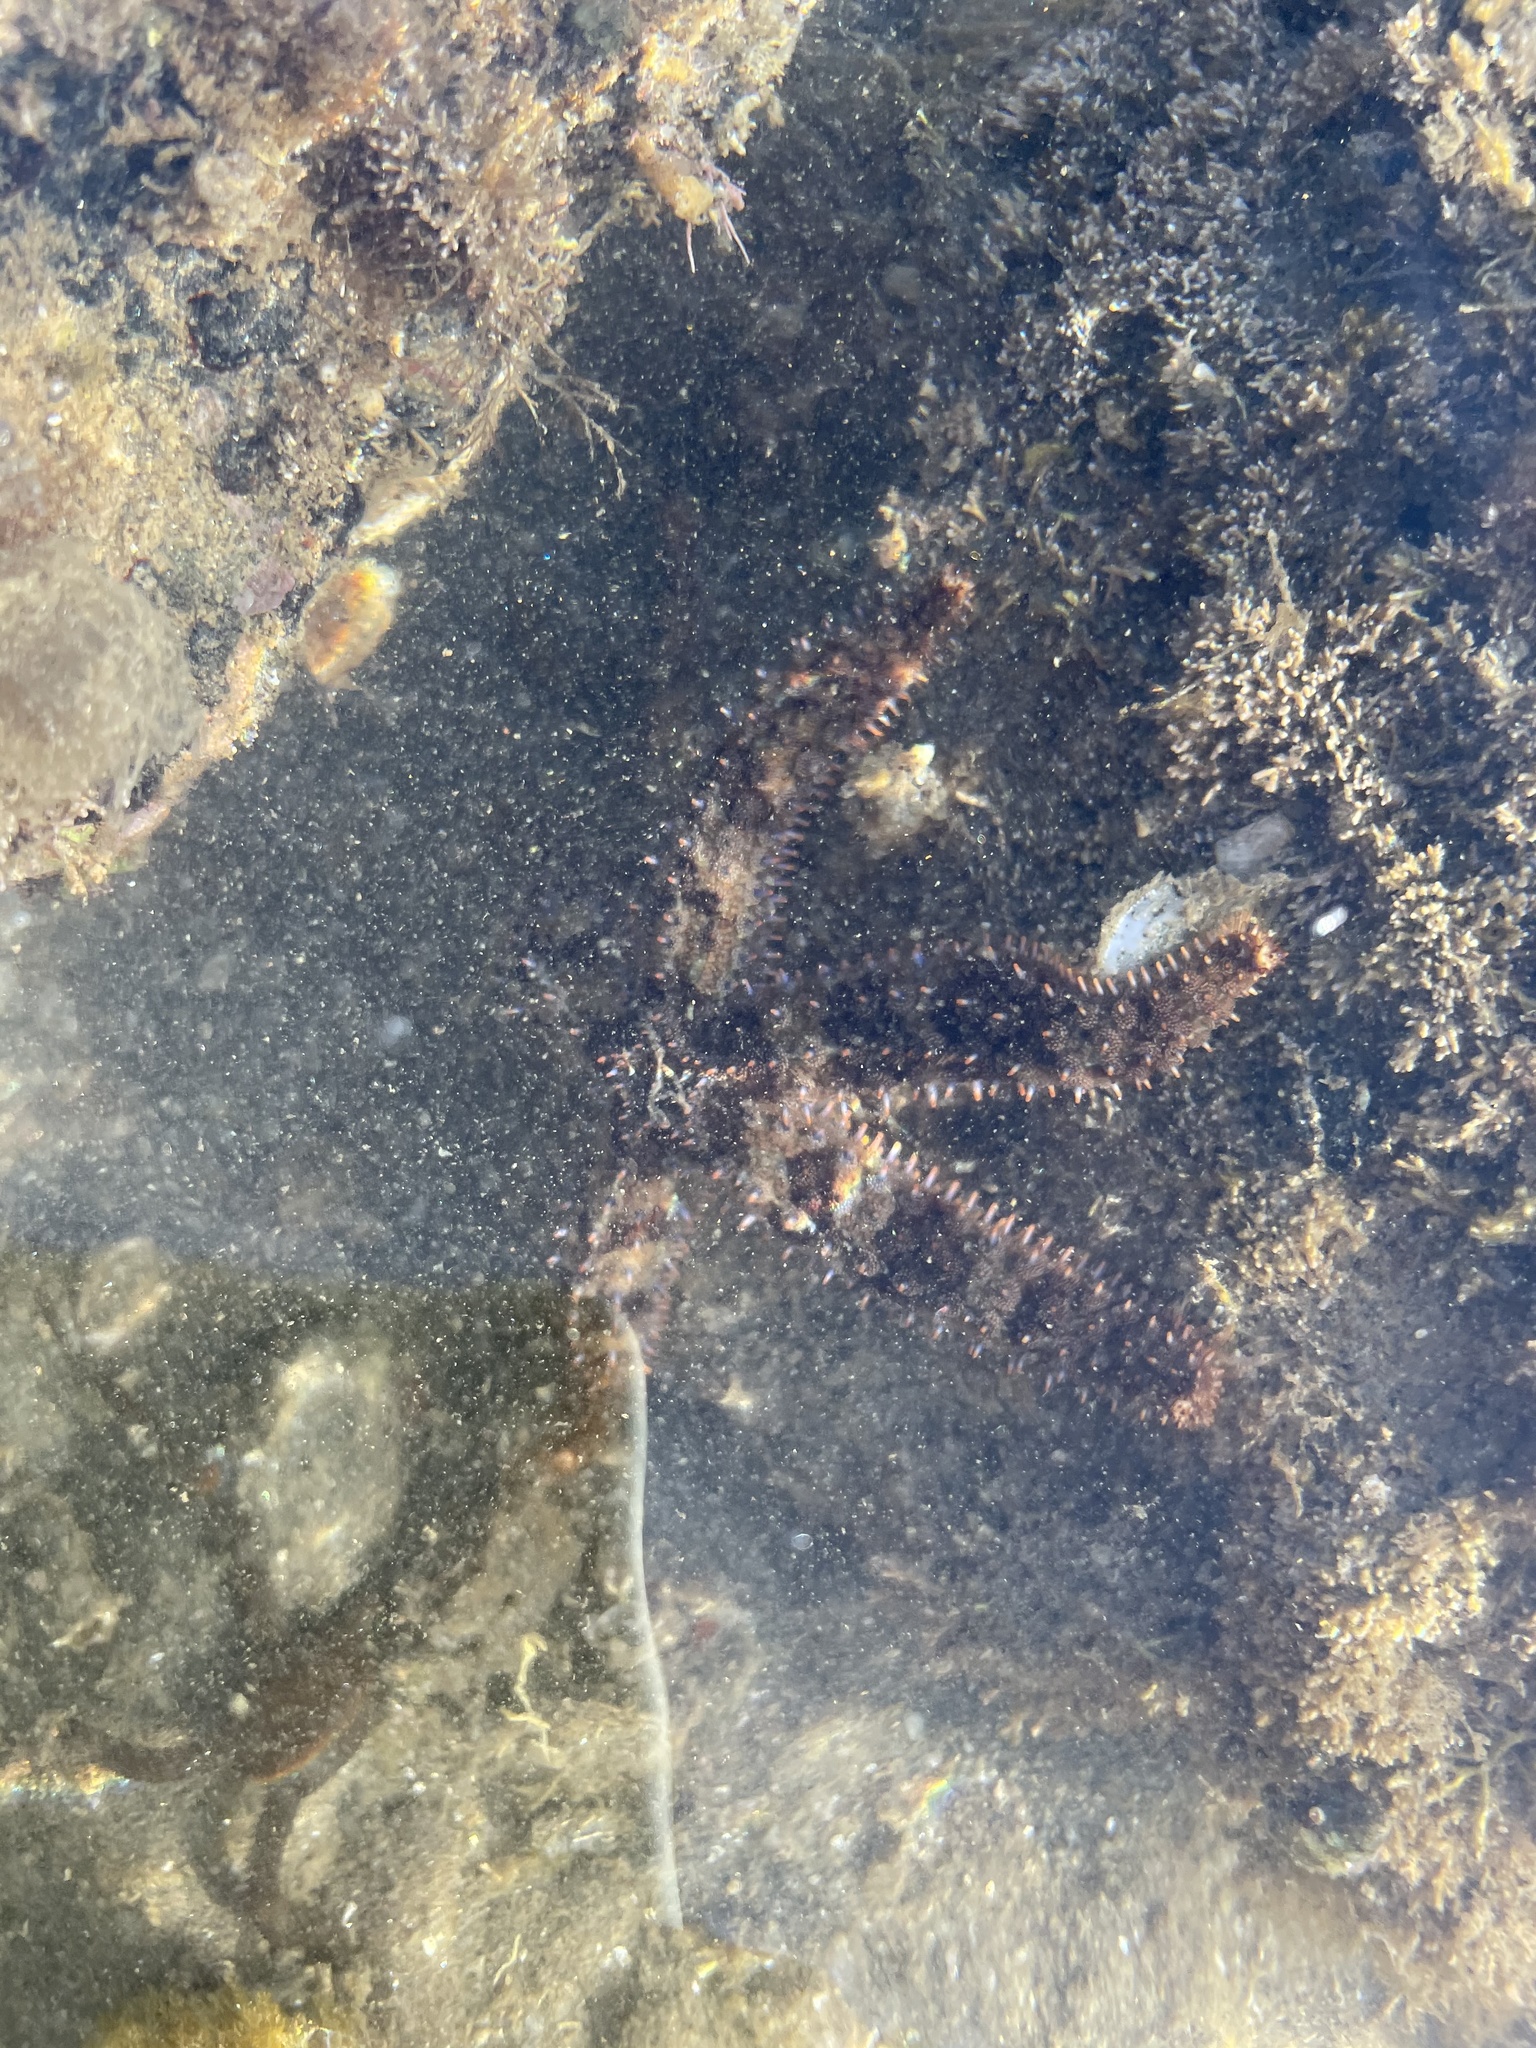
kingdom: Animalia
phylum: Echinodermata
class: Asteroidea
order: Forcipulatida
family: Asteriidae
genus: Astrometis
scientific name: Astrometis sertulifera
